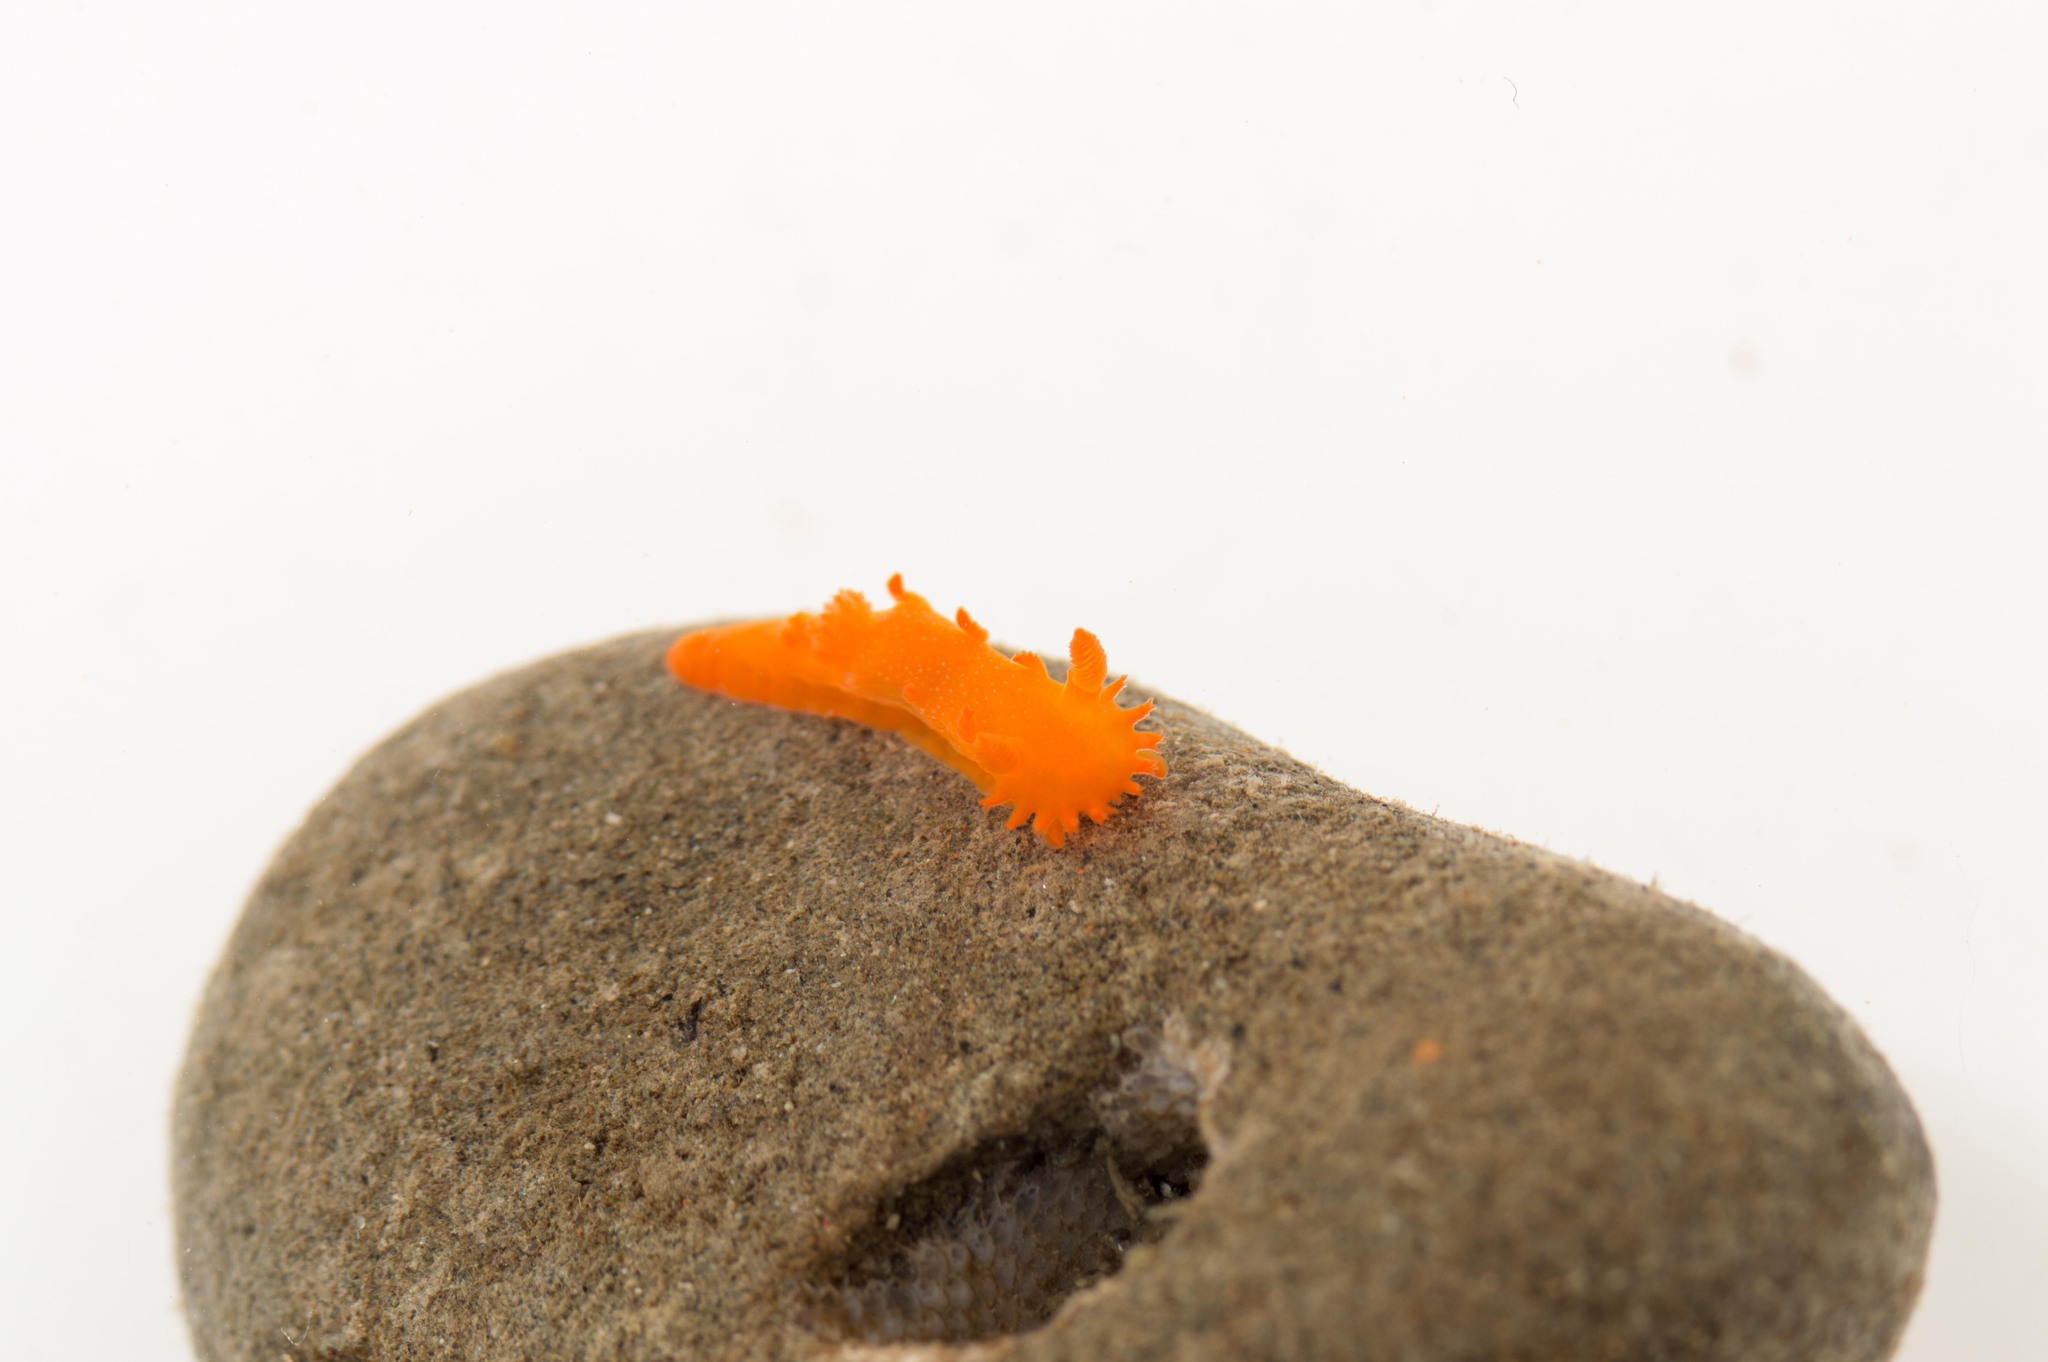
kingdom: Animalia
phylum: Mollusca
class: Gastropoda
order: Nudibranchia
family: Polyceridae
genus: Triopha
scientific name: Triopha maculata
